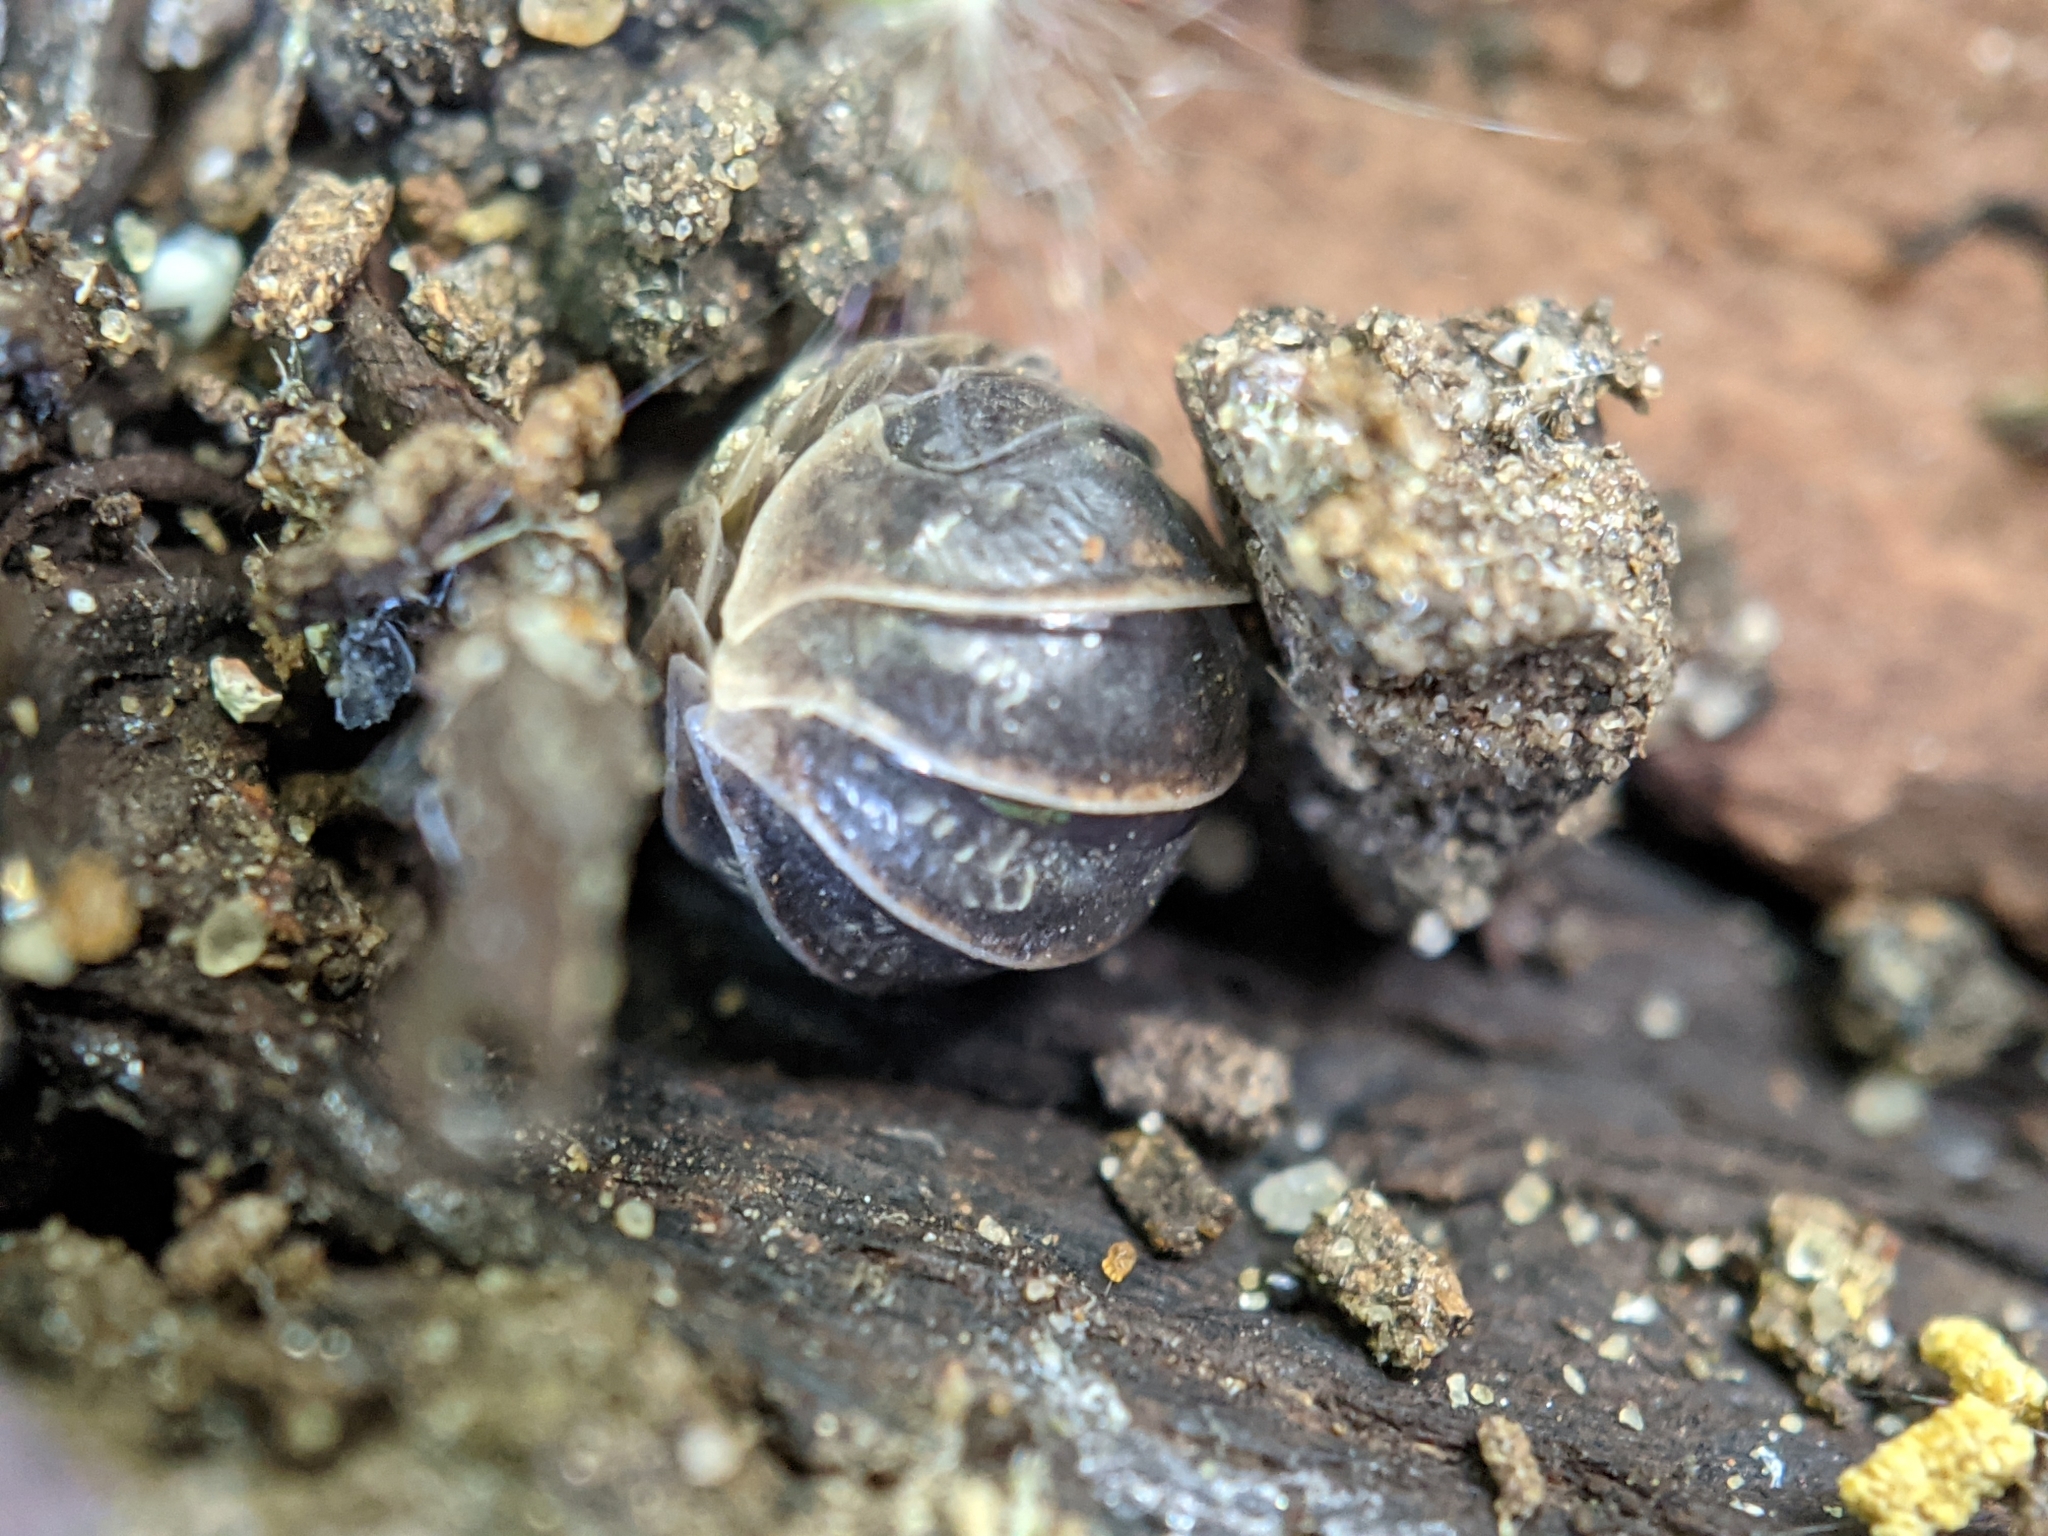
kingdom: Animalia
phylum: Arthropoda
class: Malacostraca
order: Isopoda
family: Armadillidiidae
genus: Armadillidium
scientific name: Armadillidium vulgare
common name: Common pill woodlouse
